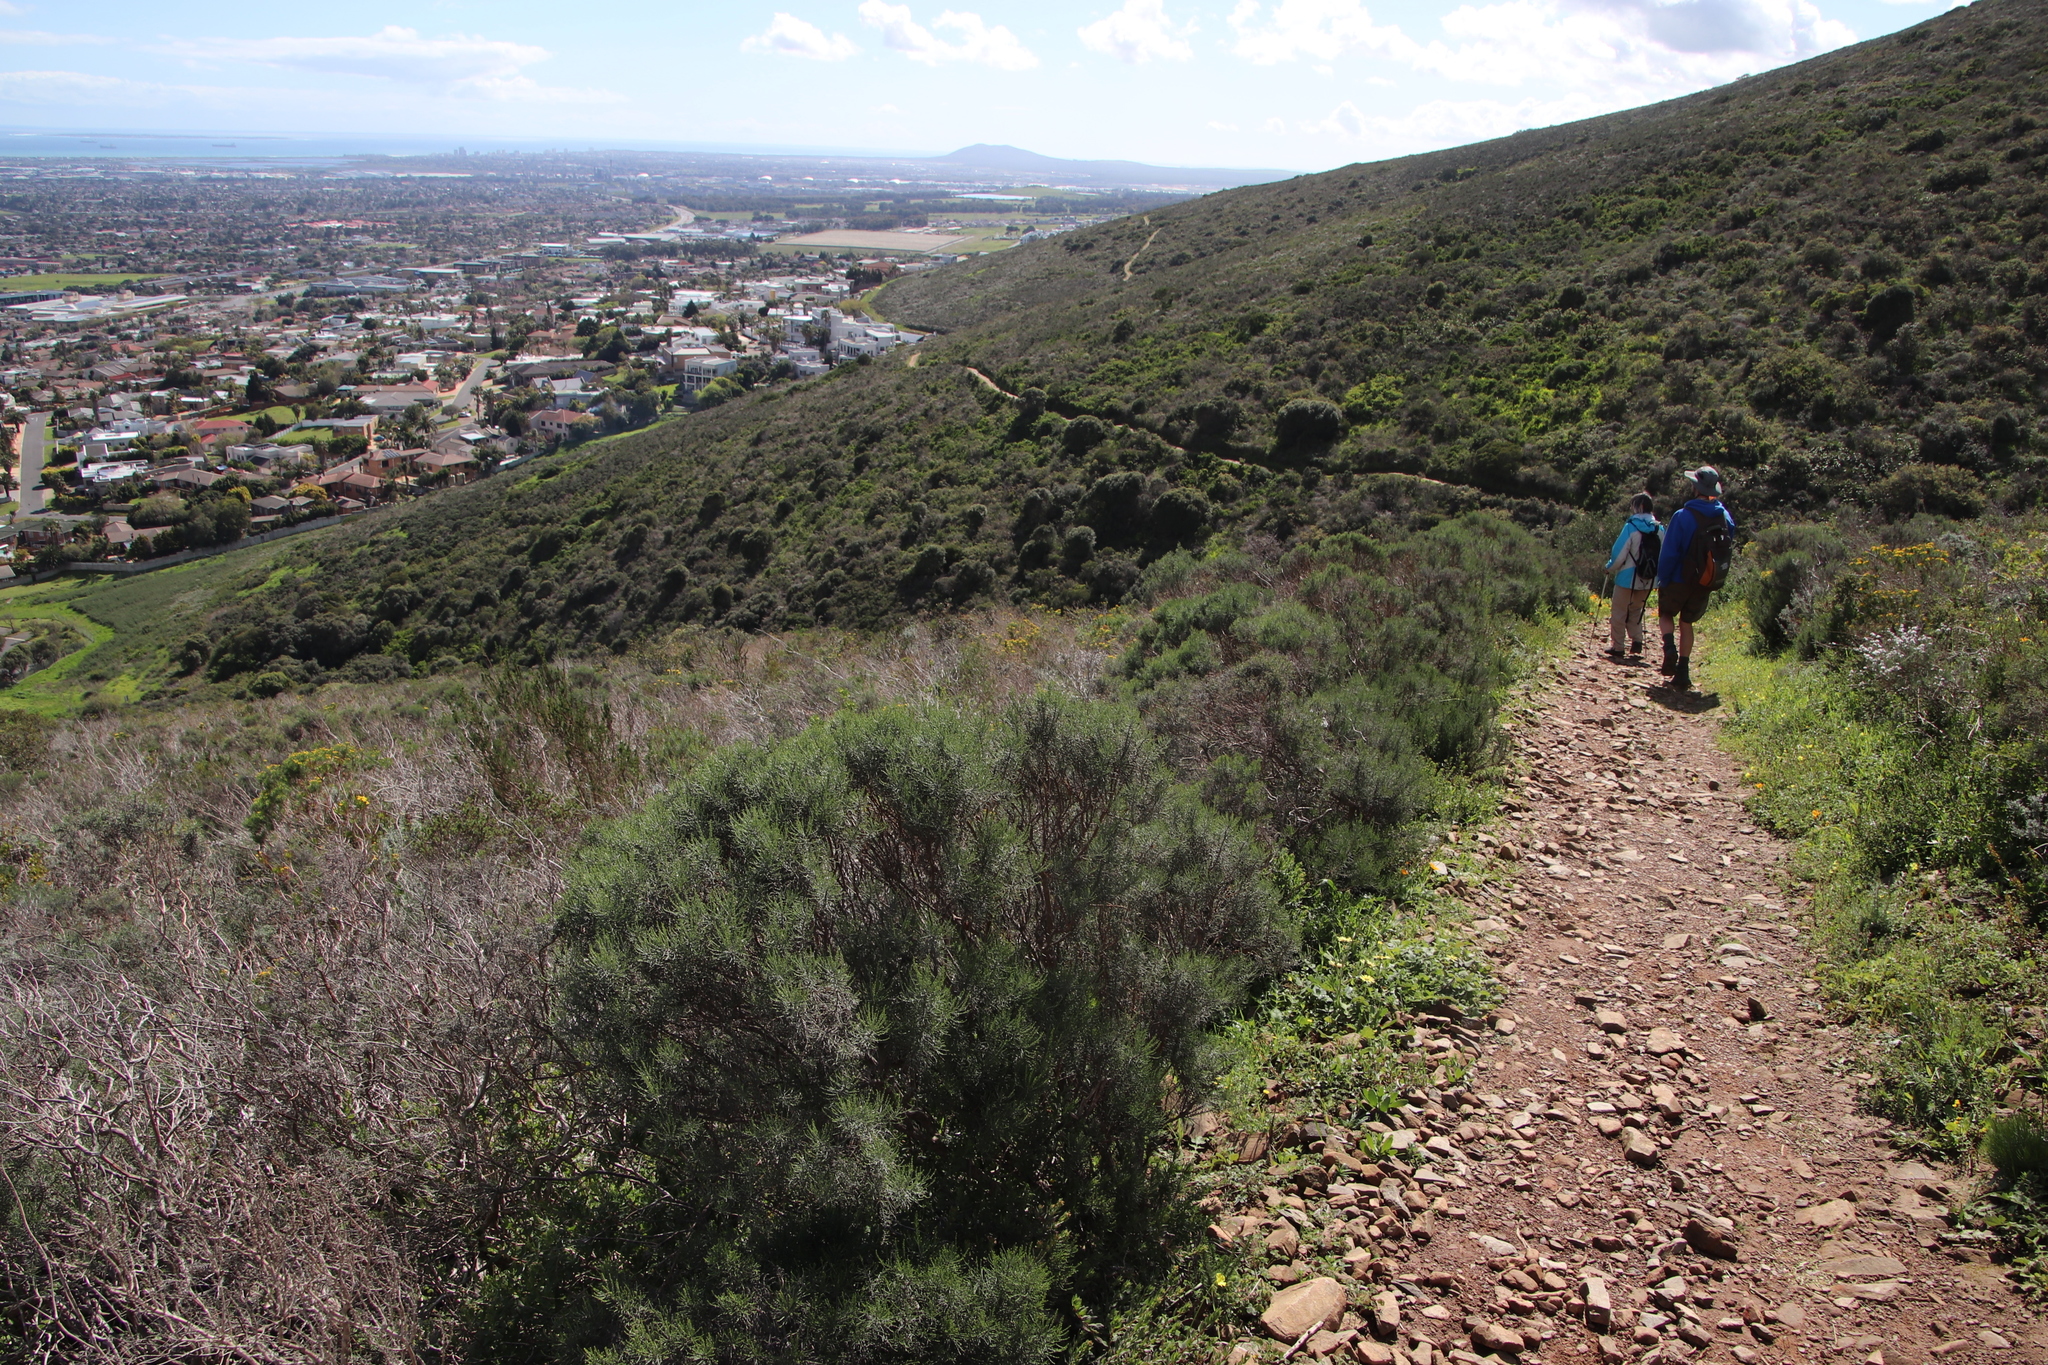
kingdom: Plantae
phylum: Tracheophyta
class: Magnoliopsida
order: Asterales
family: Asteraceae
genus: Dicerothamnus
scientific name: Dicerothamnus rhinocerotis
